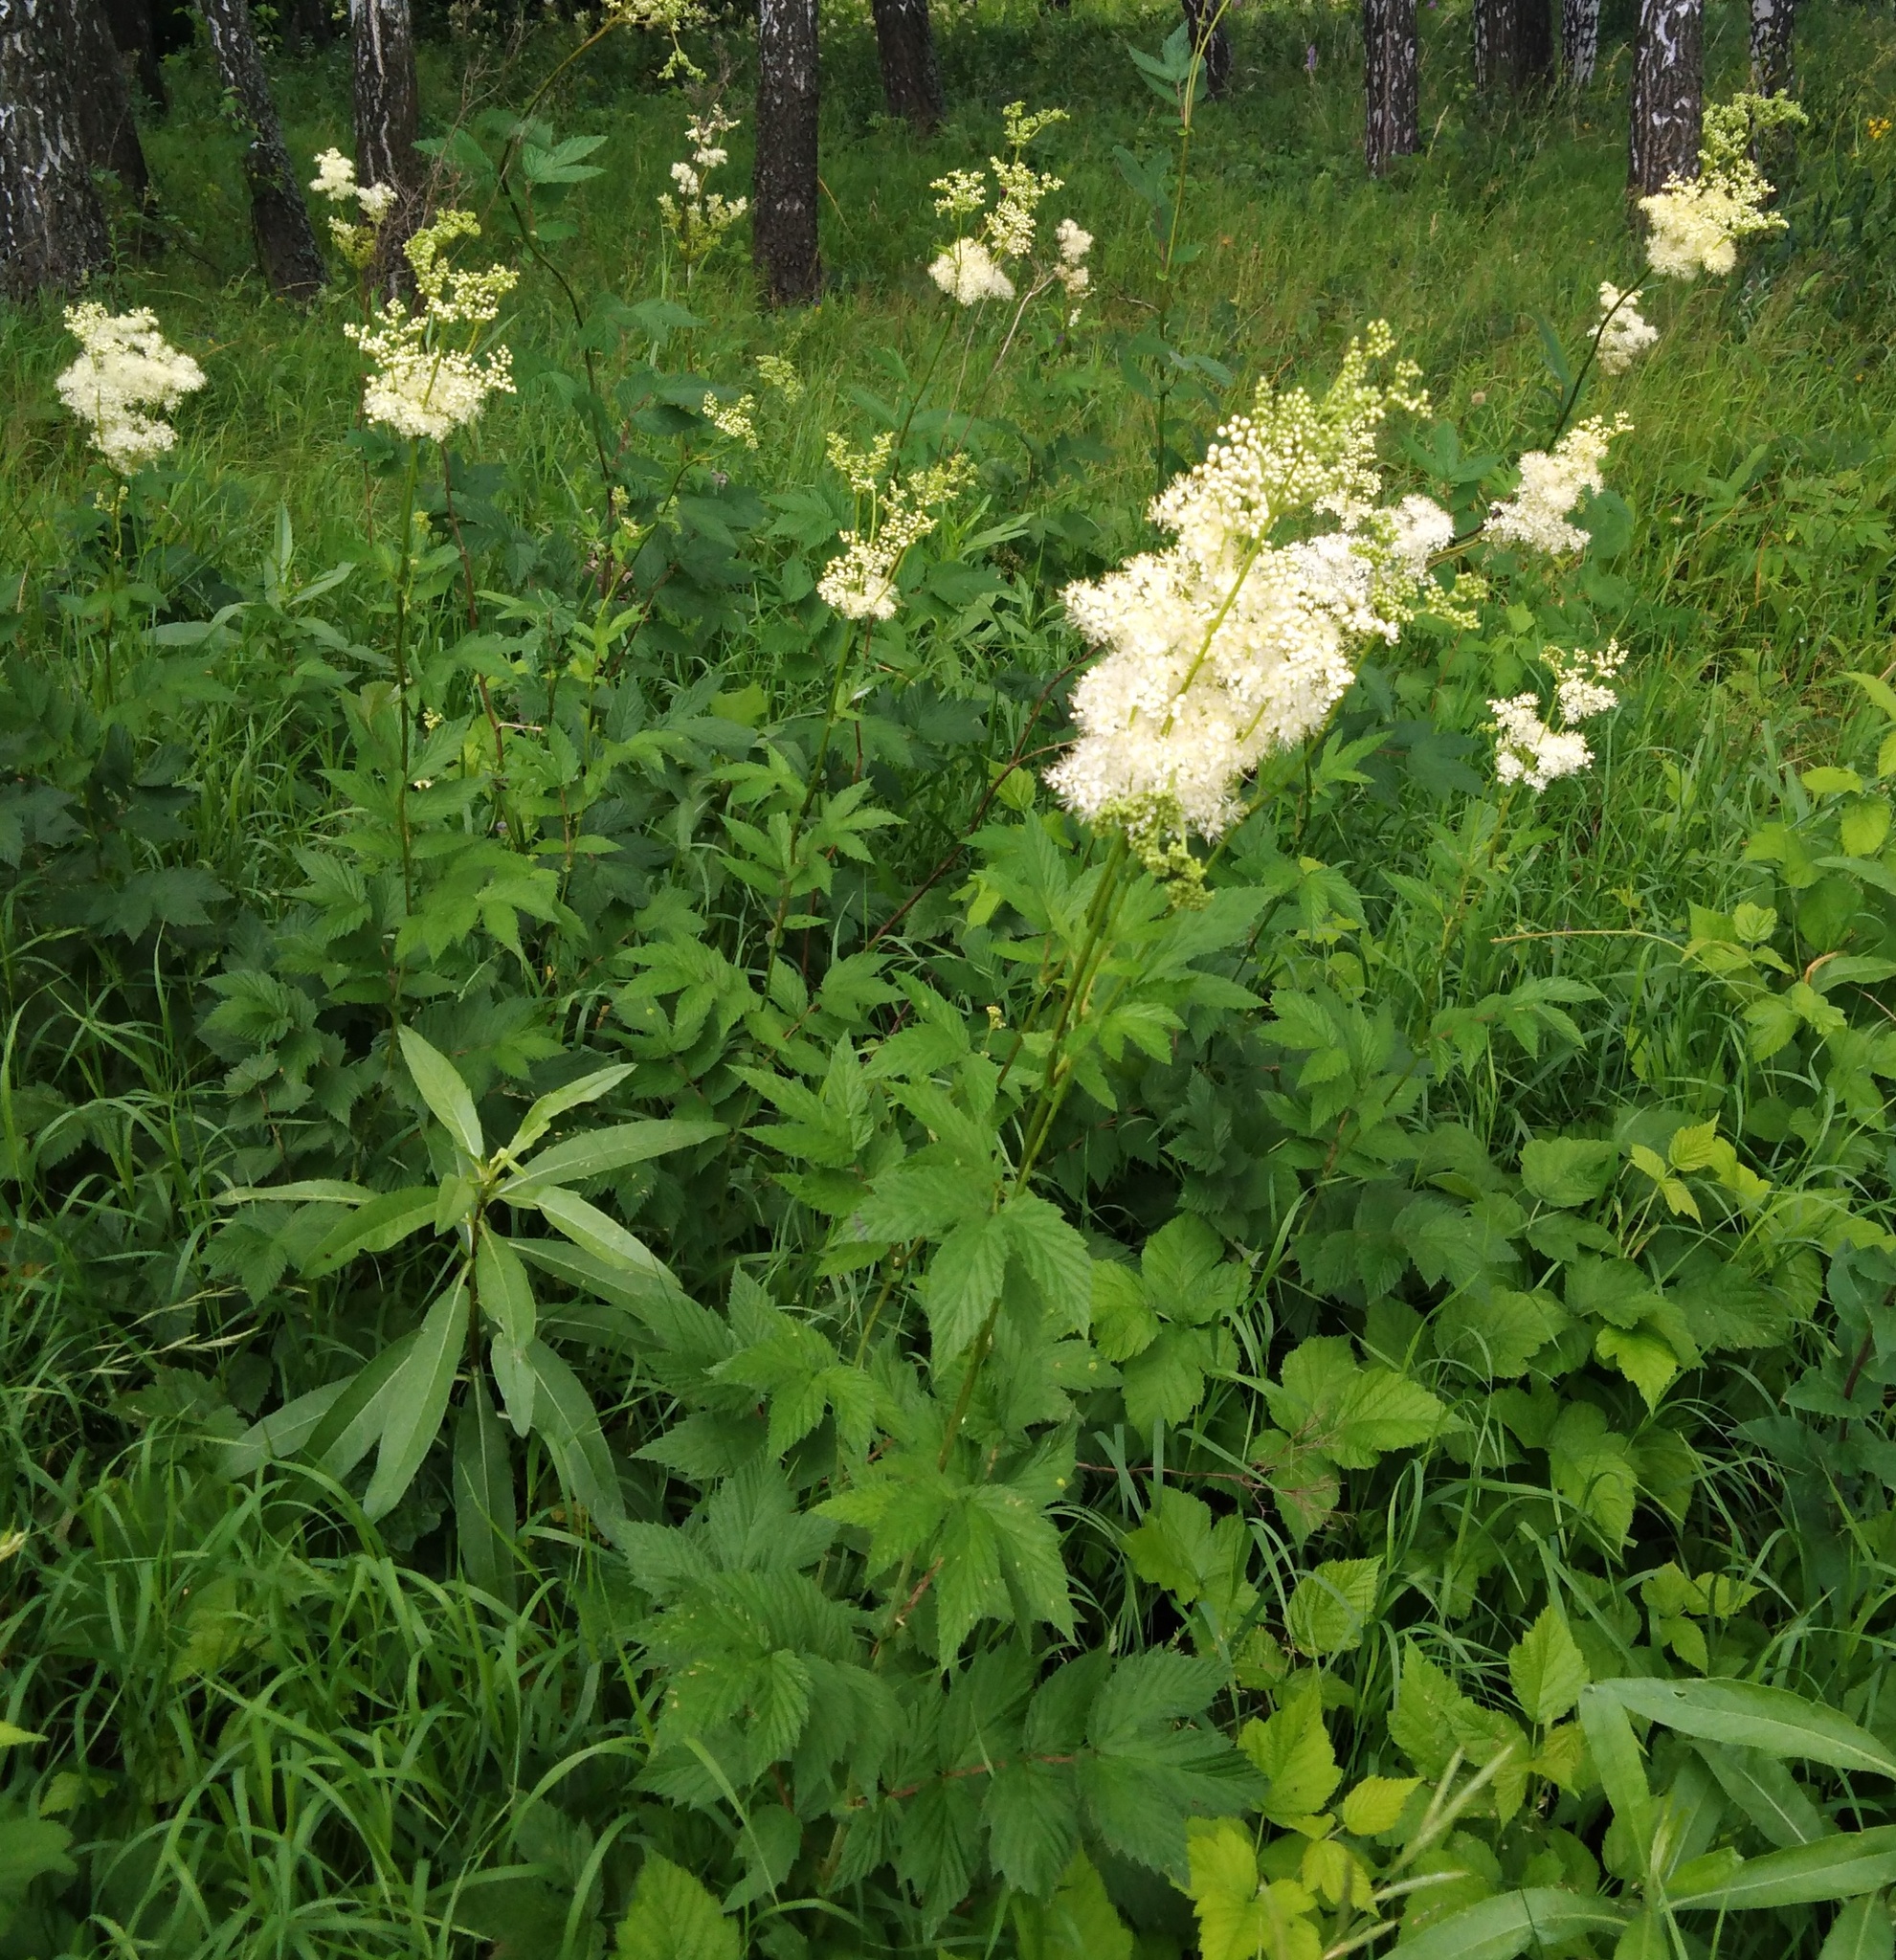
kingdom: Plantae
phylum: Tracheophyta
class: Magnoliopsida
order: Rosales
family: Rosaceae
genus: Filipendula
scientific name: Filipendula ulmaria
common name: Meadowsweet
